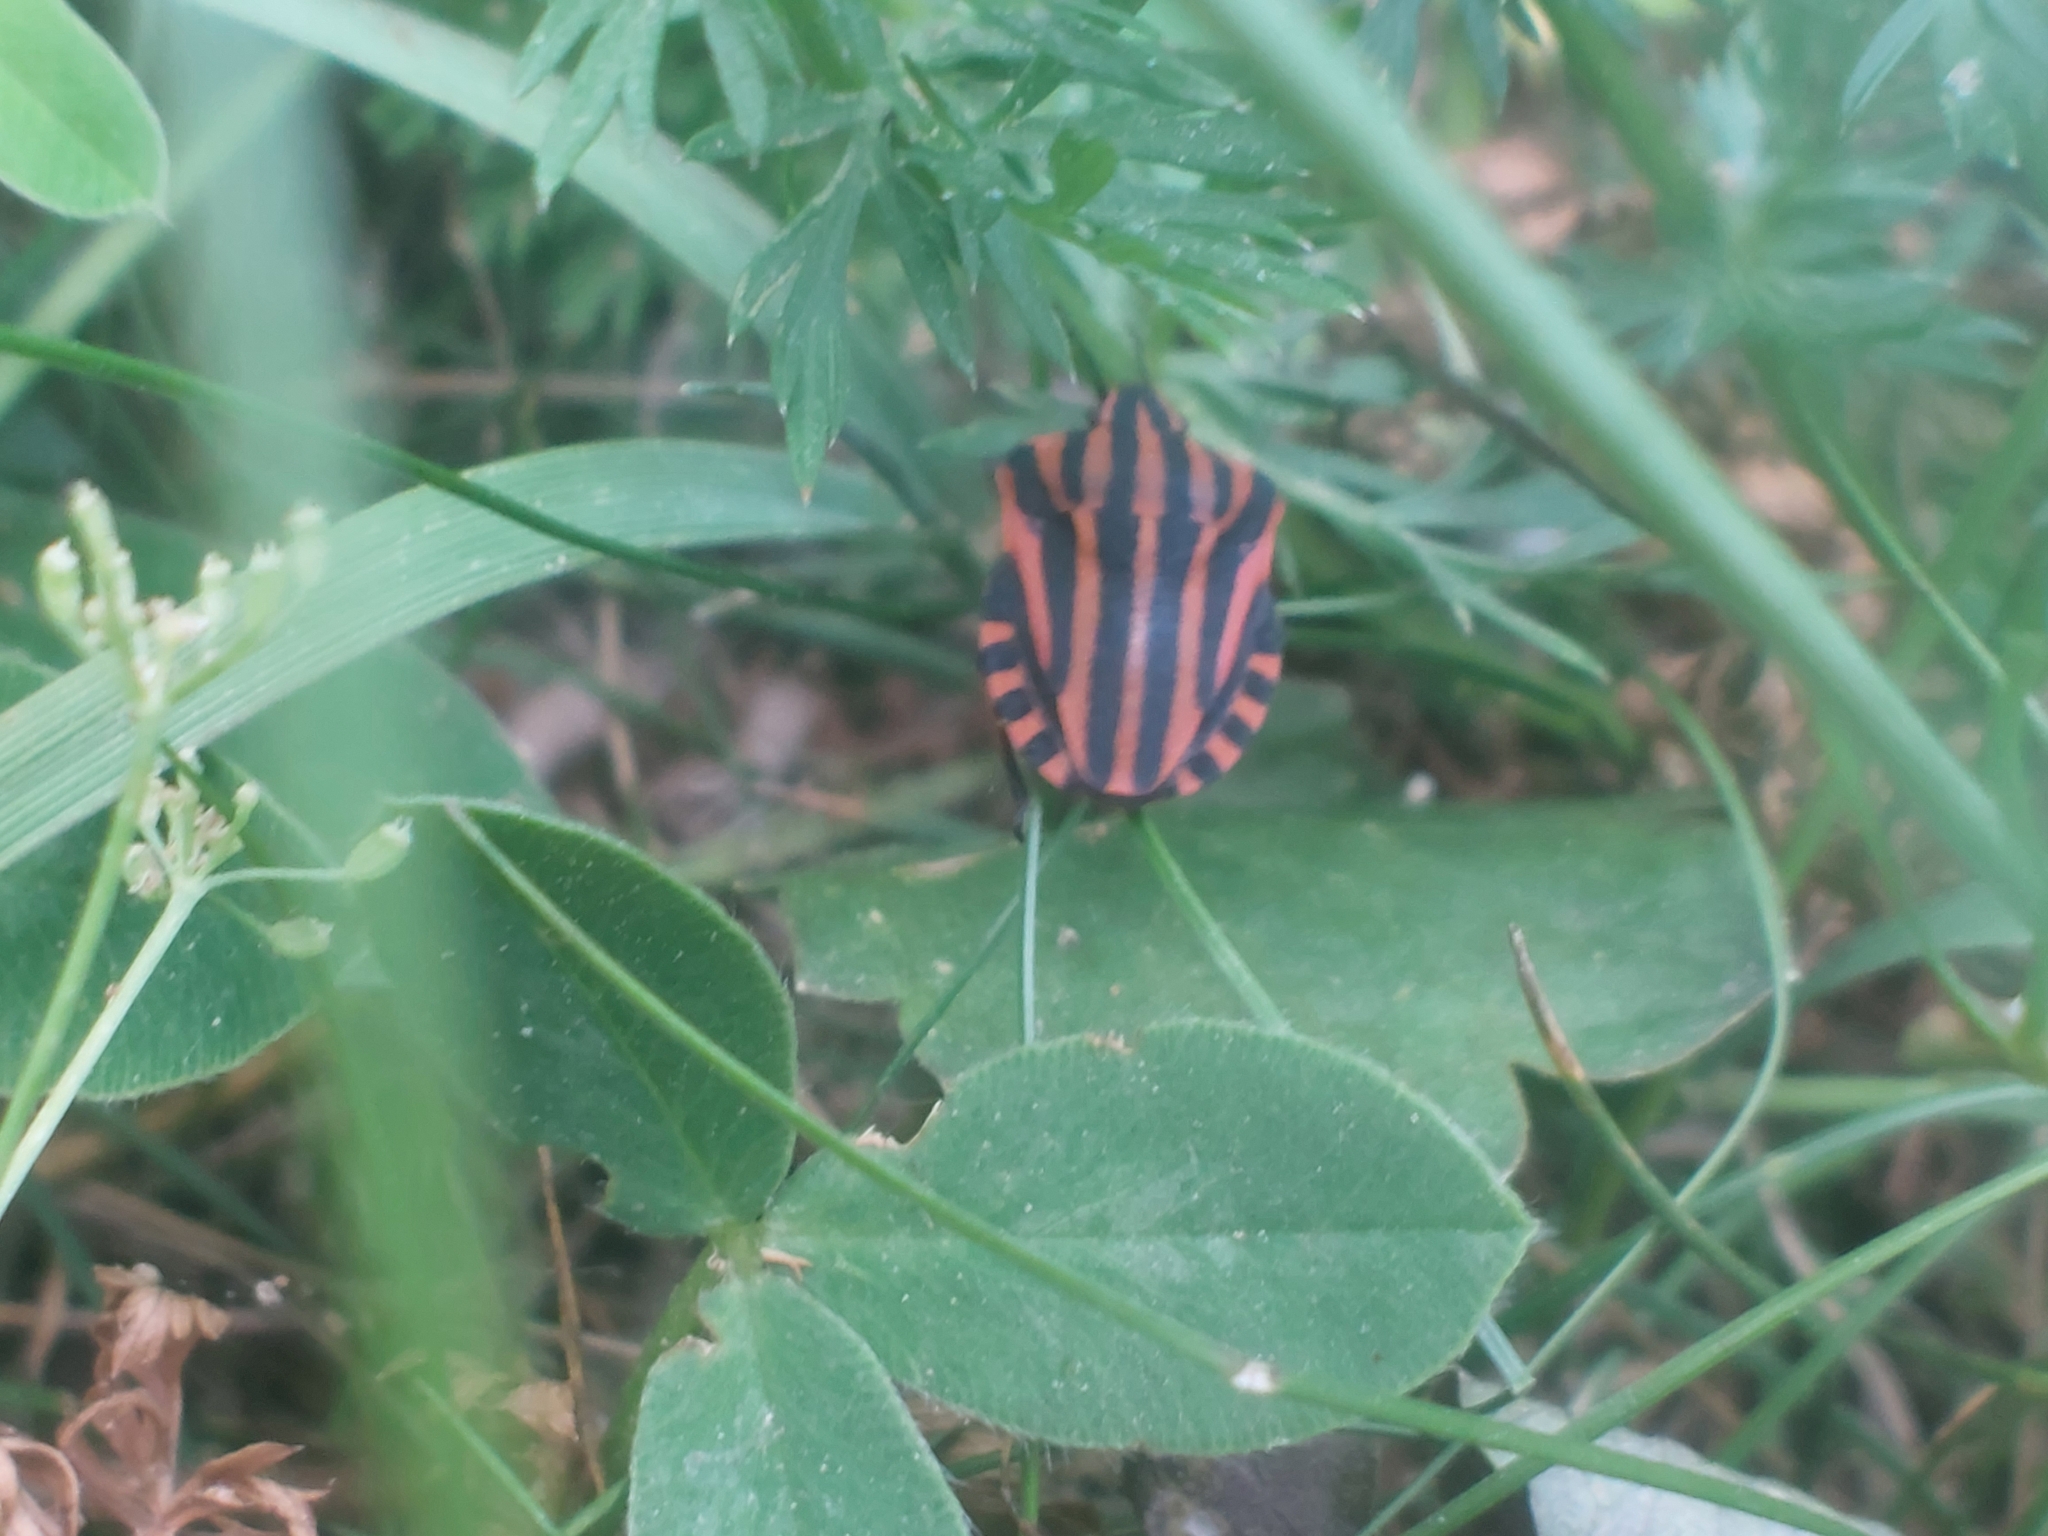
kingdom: Animalia
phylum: Arthropoda
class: Insecta
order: Hemiptera
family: Pentatomidae
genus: Graphosoma
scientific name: Graphosoma italicum
